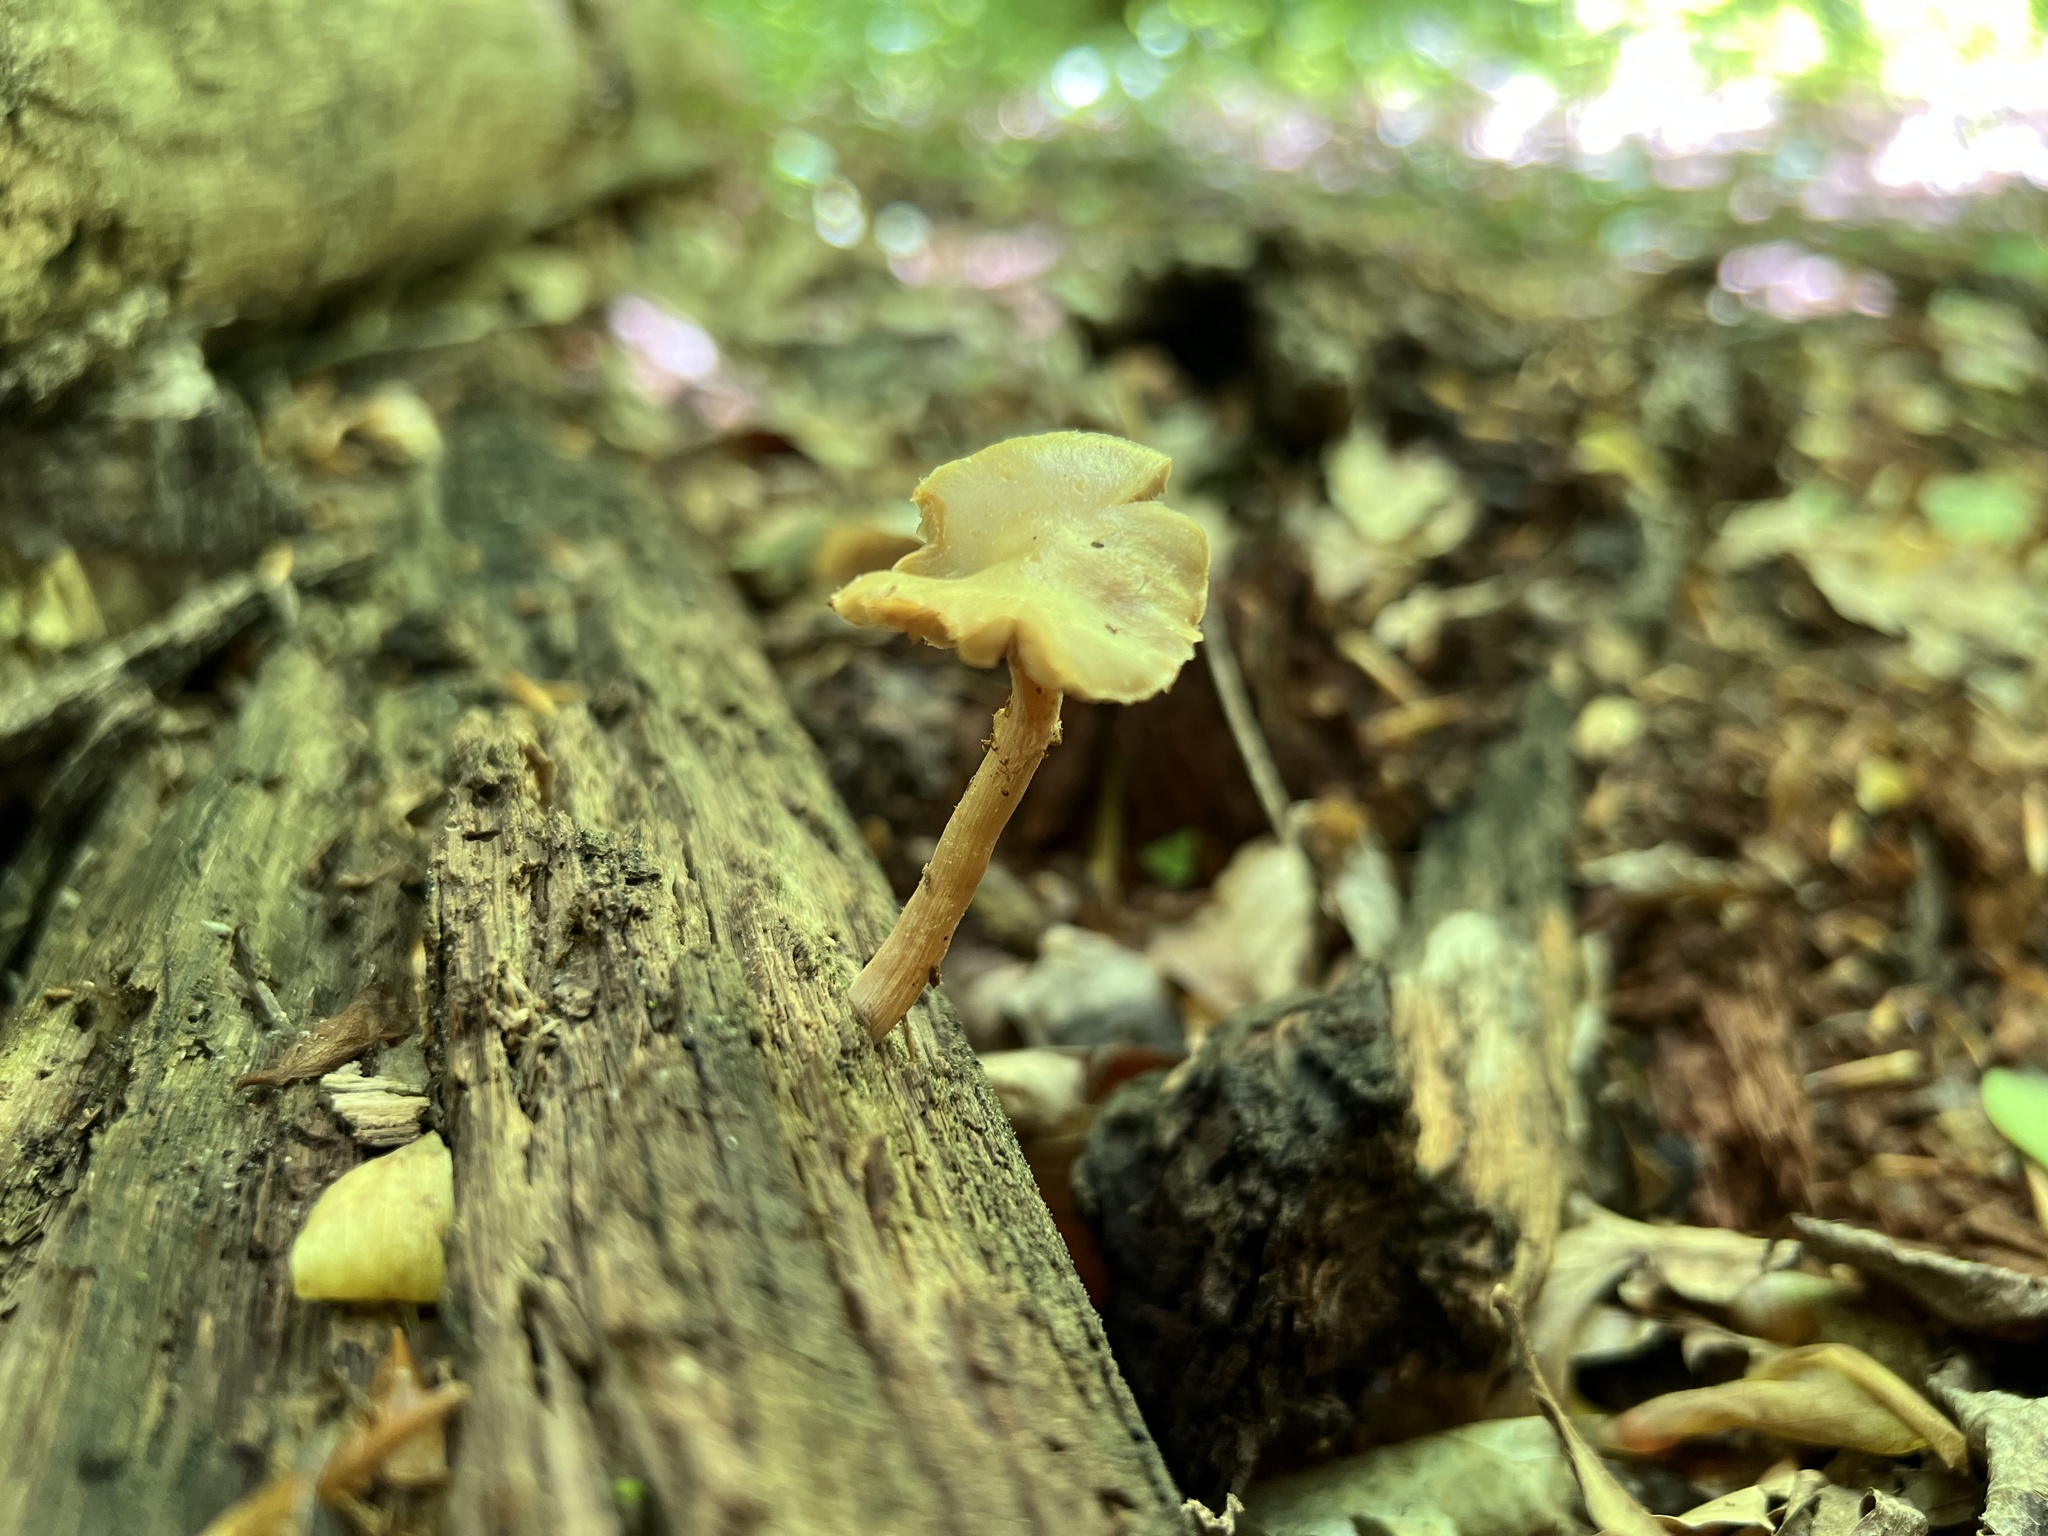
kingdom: Fungi
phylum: Basidiomycota
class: Agaricomycetes
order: Agaricales
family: Strophariaceae
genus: Kuehneromyces
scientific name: Kuehneromyces marginellus
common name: Sheathed woodtuft
